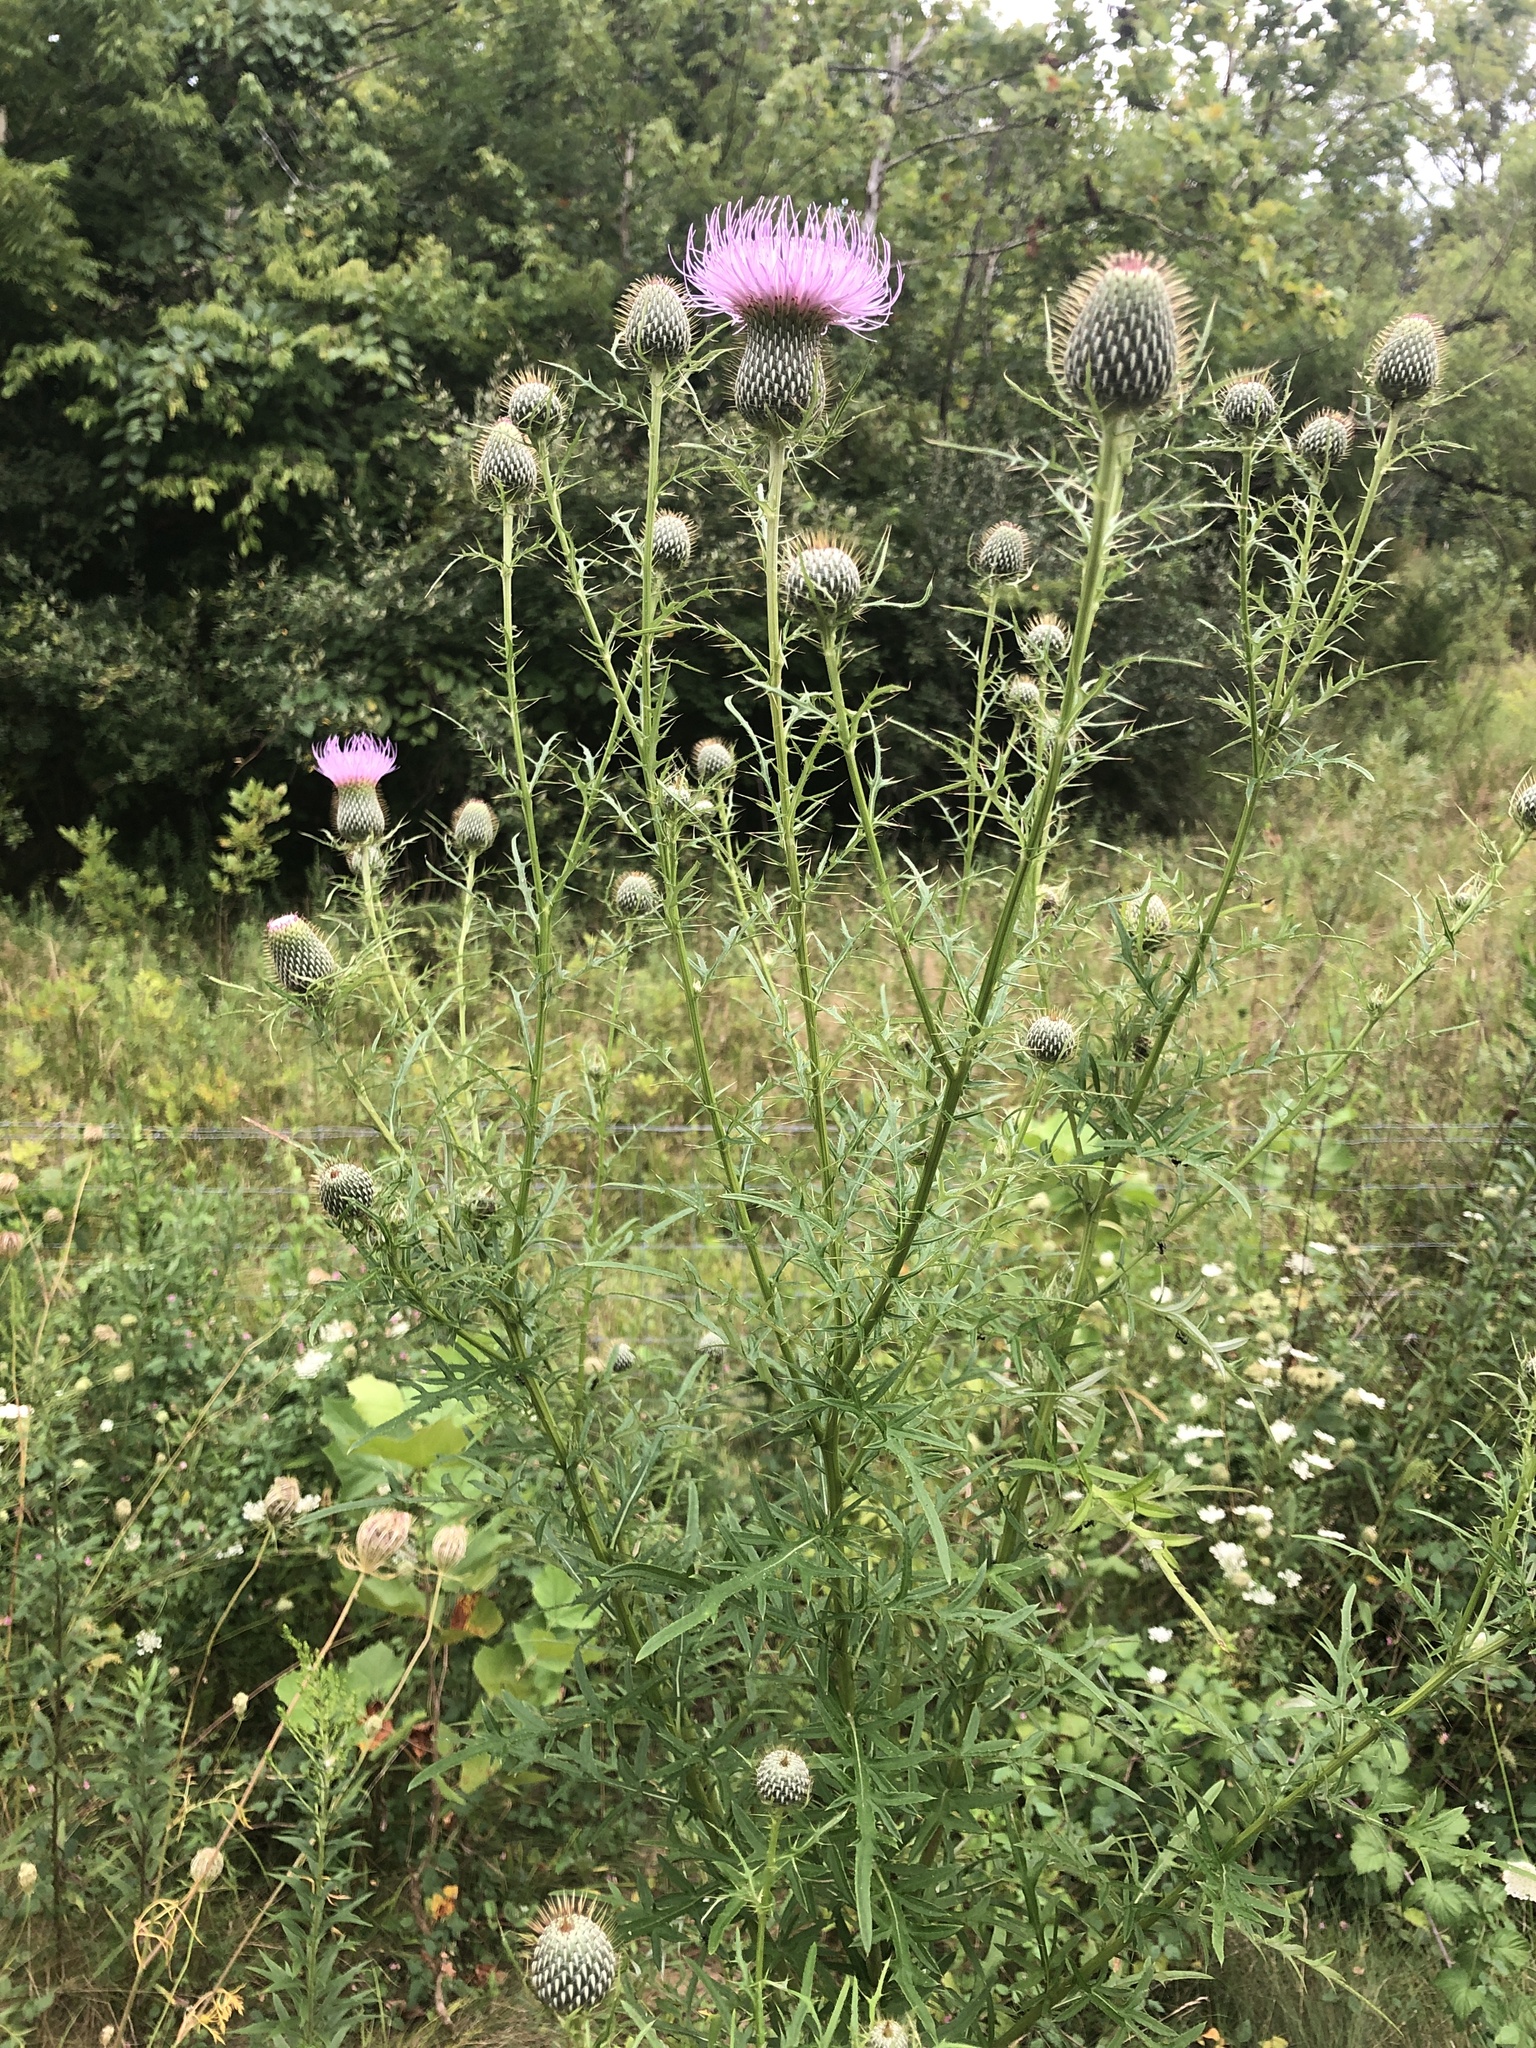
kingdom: Plantae
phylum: Tracheophyta
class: Magnoliopsida
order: Asterales
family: Asteraceae
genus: Cirsium
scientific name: Cirsium discolor
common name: Field thistle
